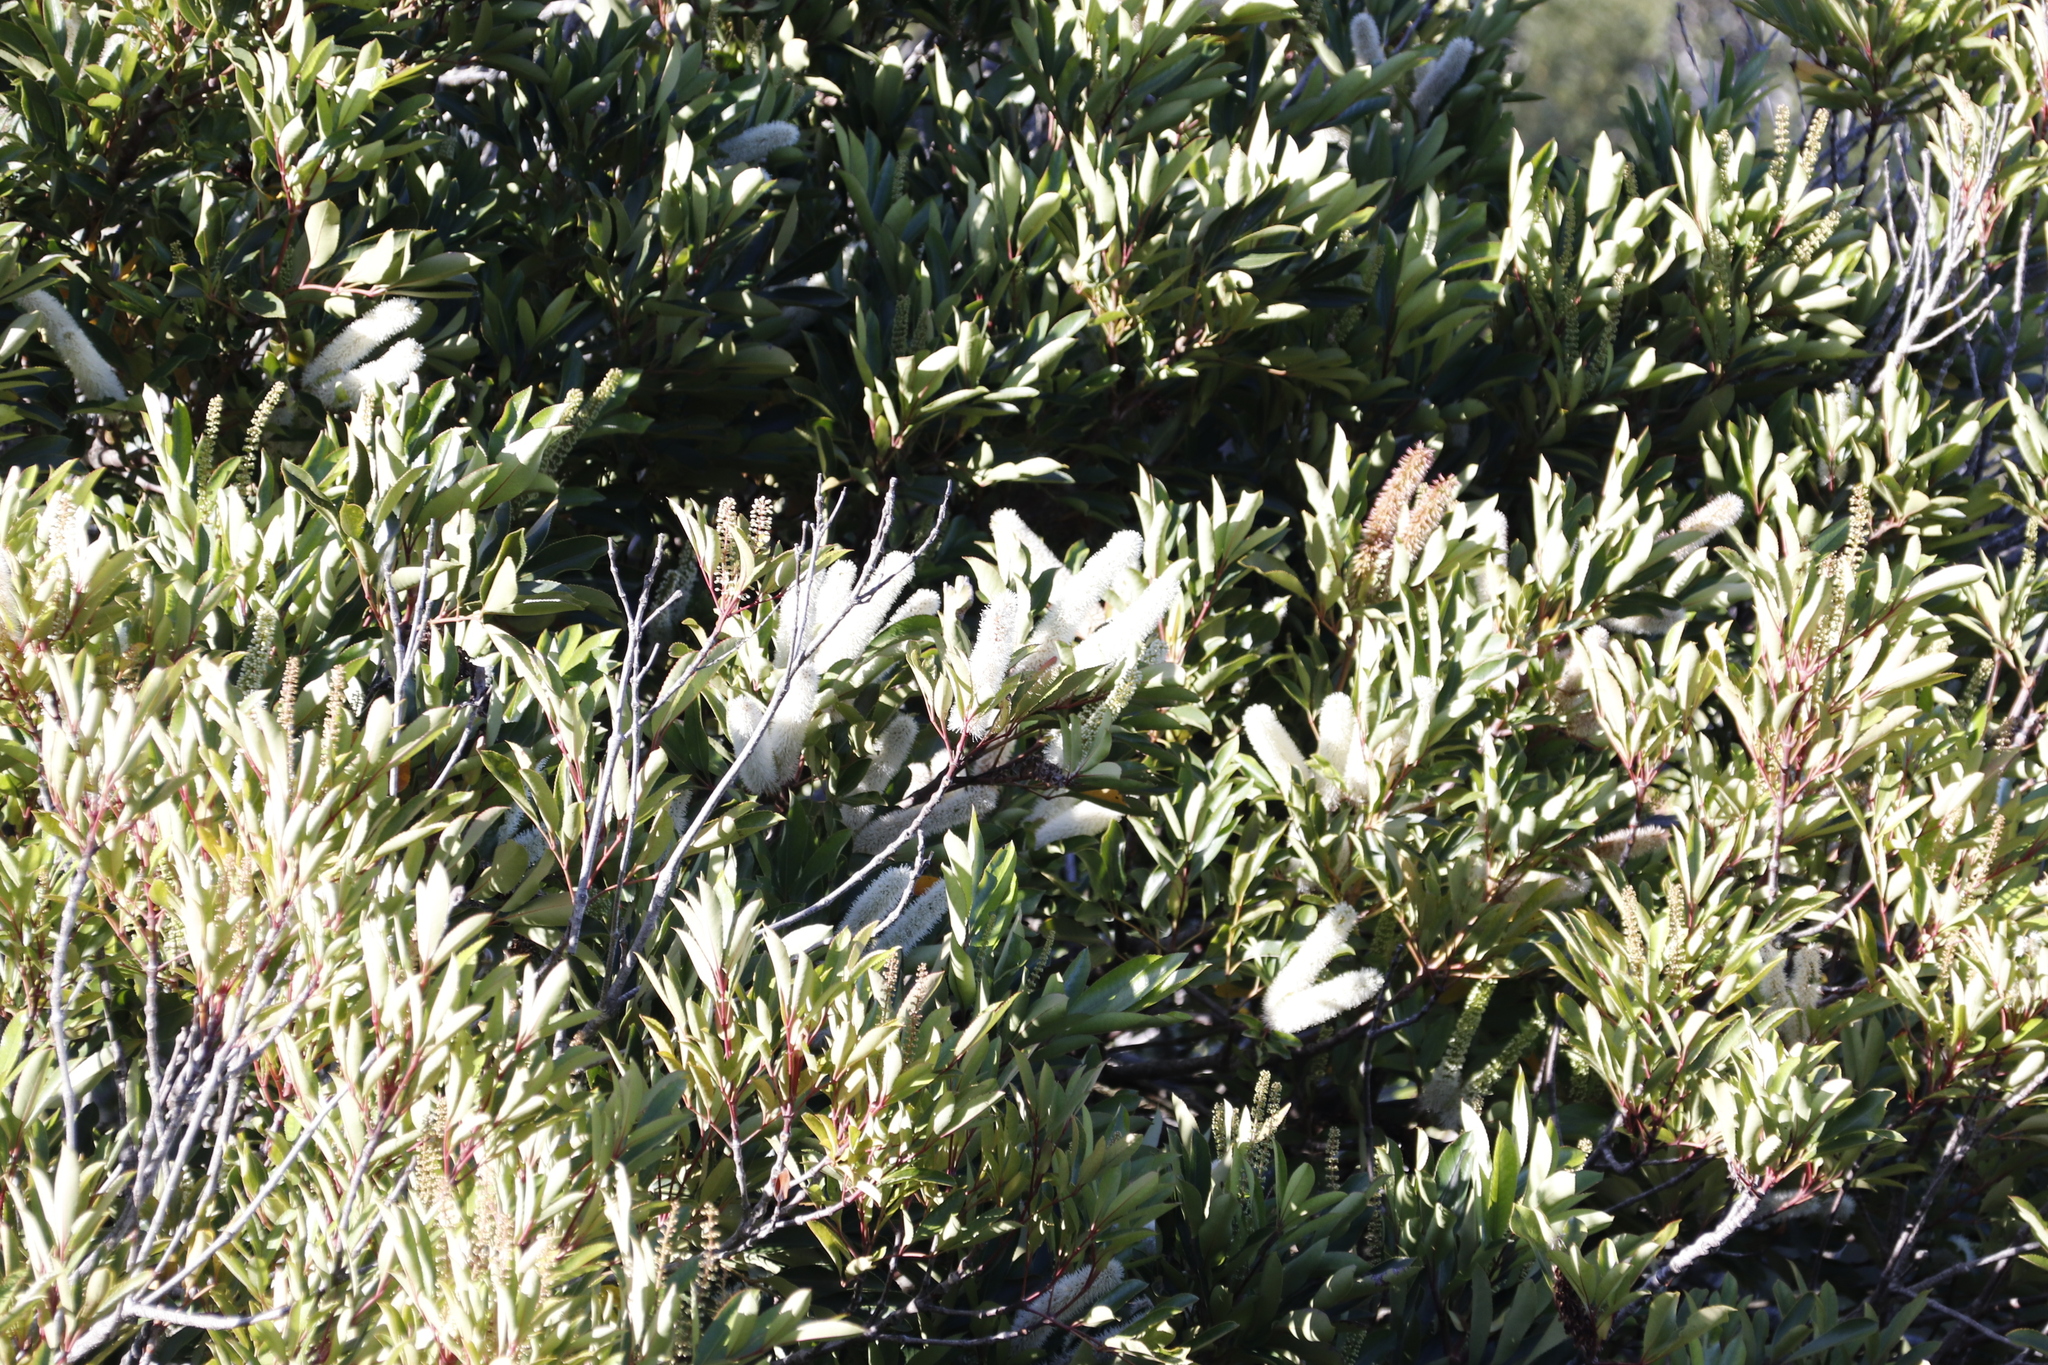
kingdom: Plantae
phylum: Tracheophyta
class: Magnoliopsida
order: Oxalidales
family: Cunoniaceae
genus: Cunonia
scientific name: Cunonia capensis
